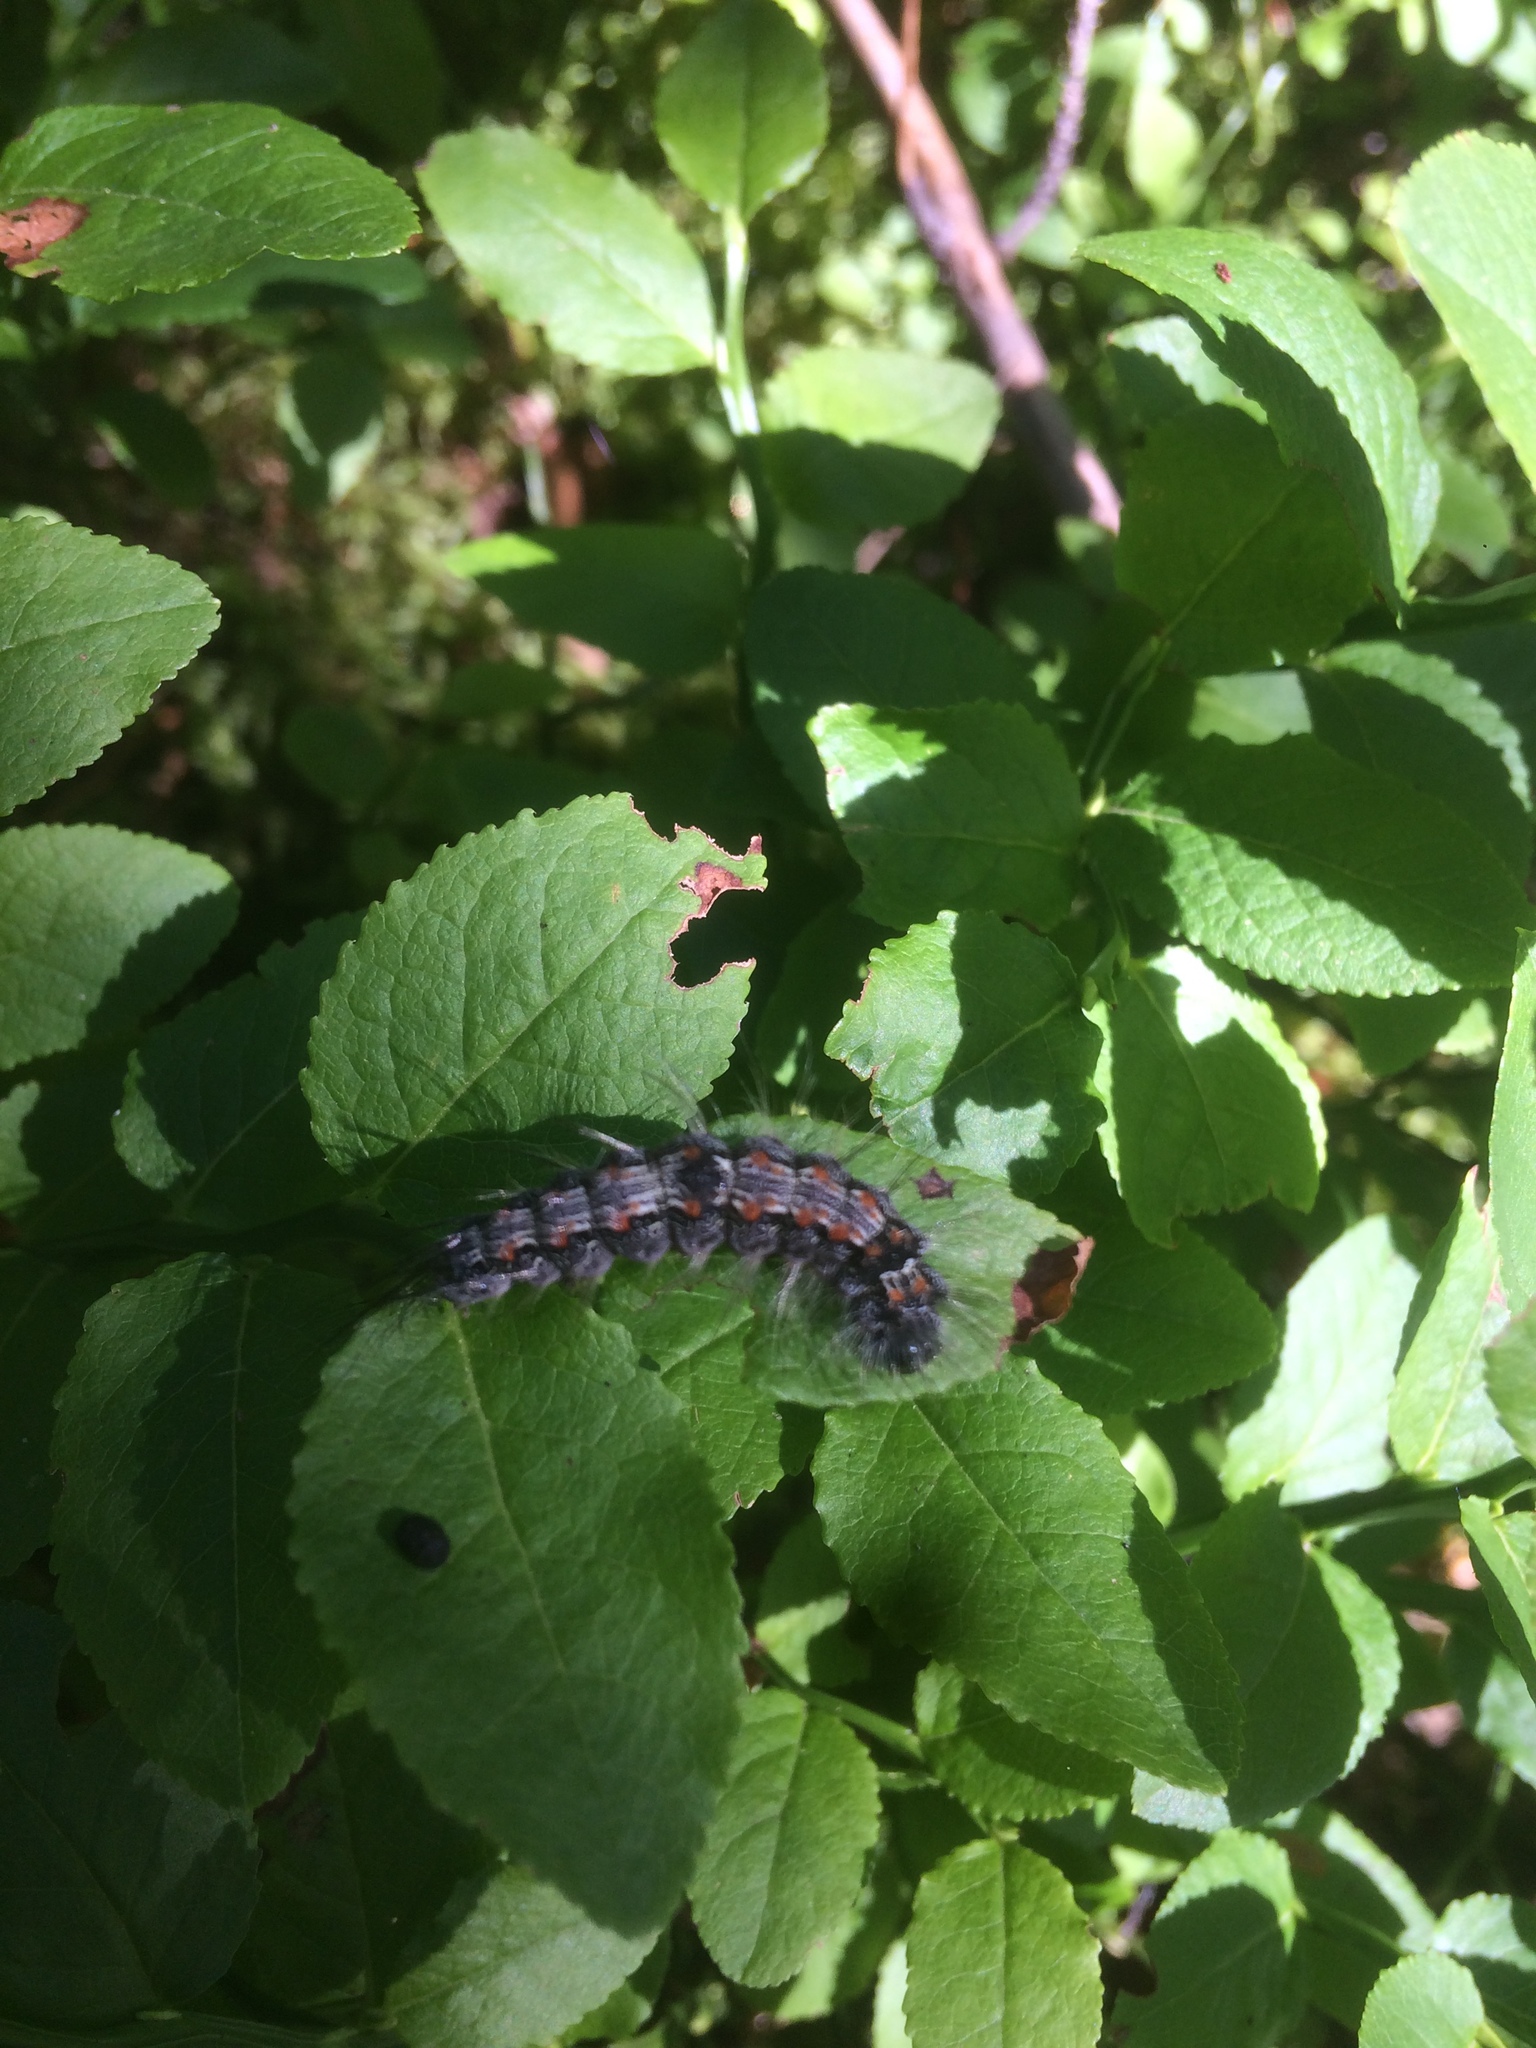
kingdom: Animalia
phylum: Arthropoda
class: Insecta
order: Lepidoptera
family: Erebidae
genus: Lithosia
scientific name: Lithosia quadra
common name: Four-spotted footman
